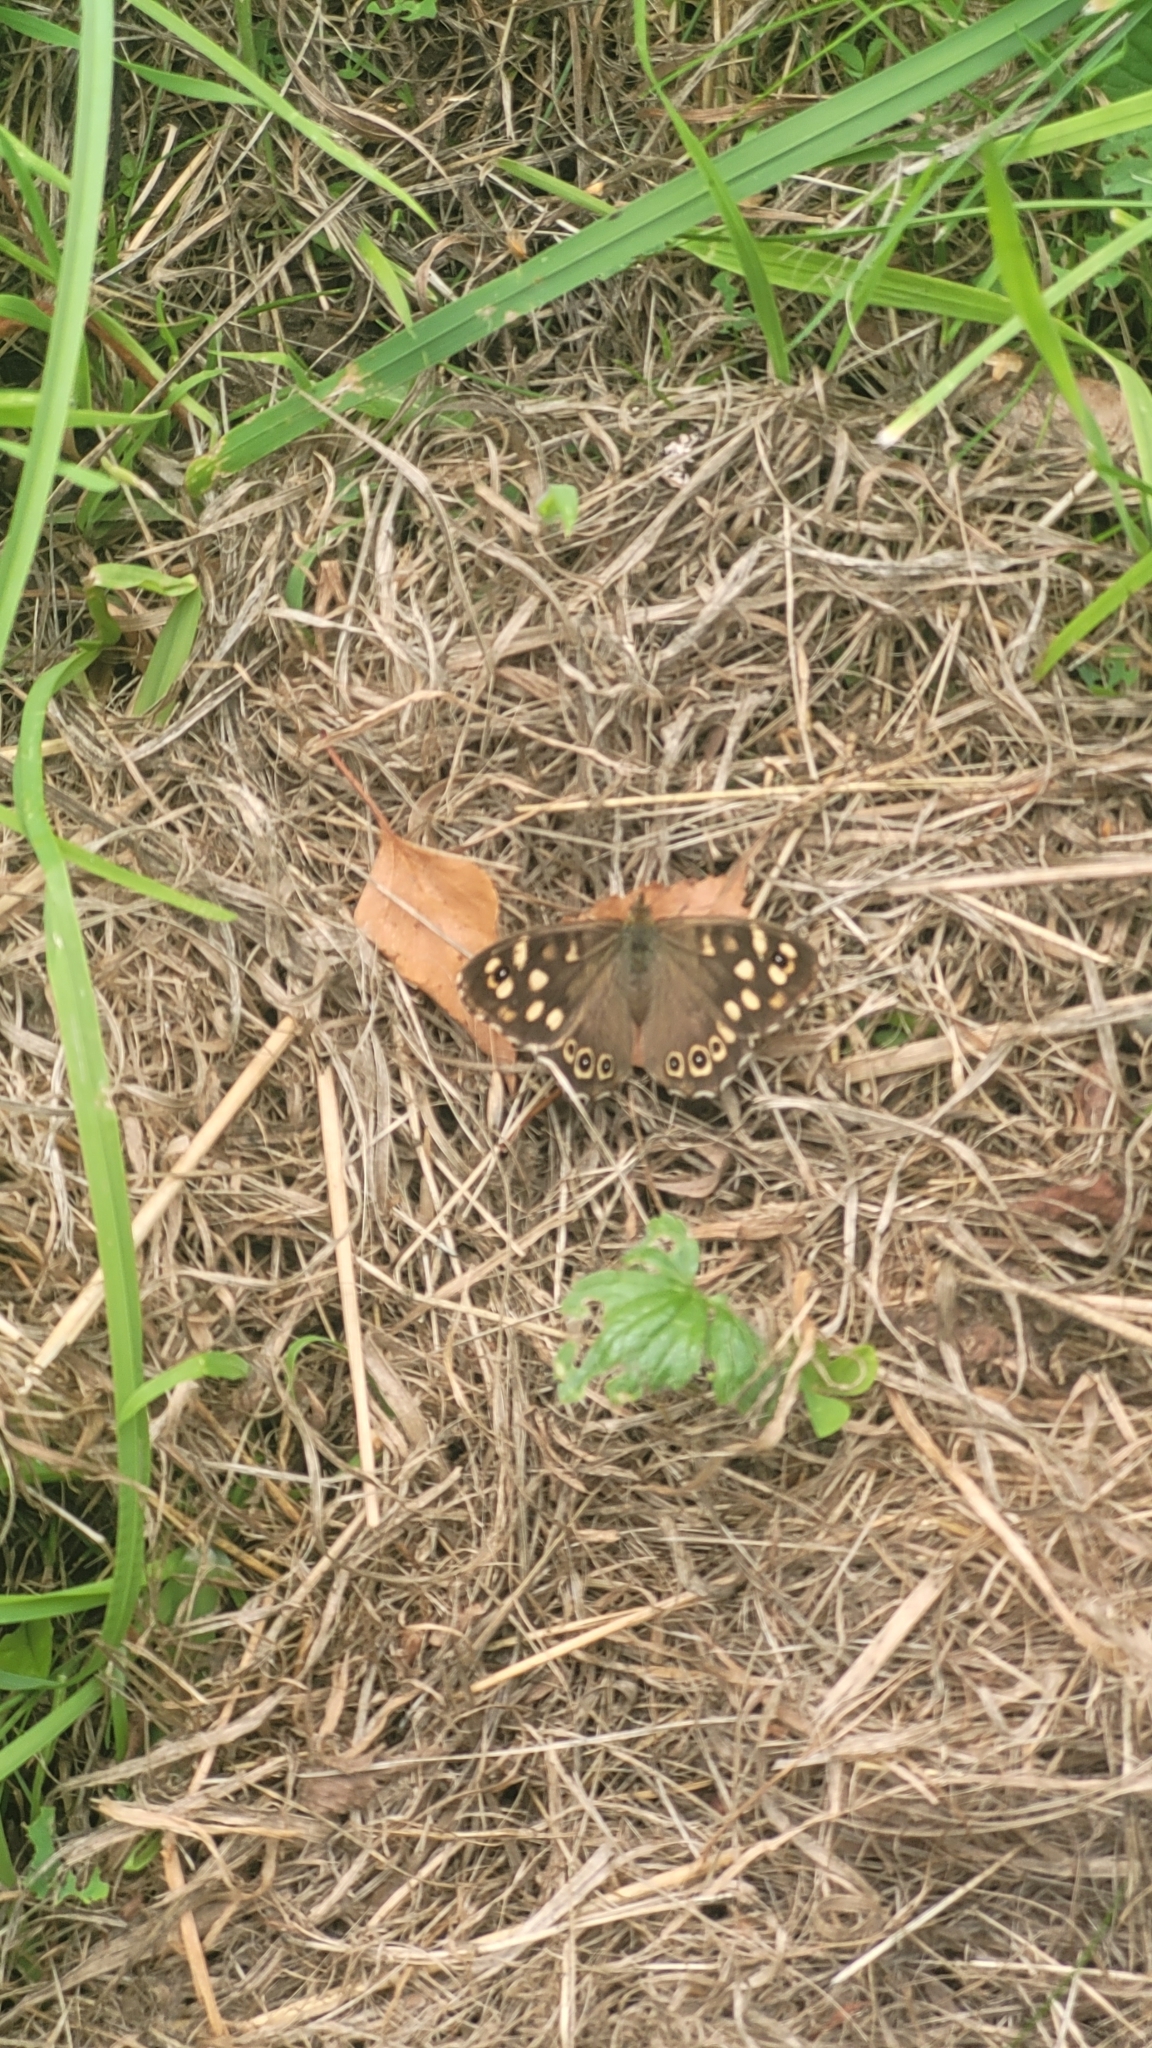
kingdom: Animalia
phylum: Arthropoda
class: Insecta
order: Lepidoptera
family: Nymphalidae
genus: Pararge
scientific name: Pararge aegeria
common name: Speckled wood
